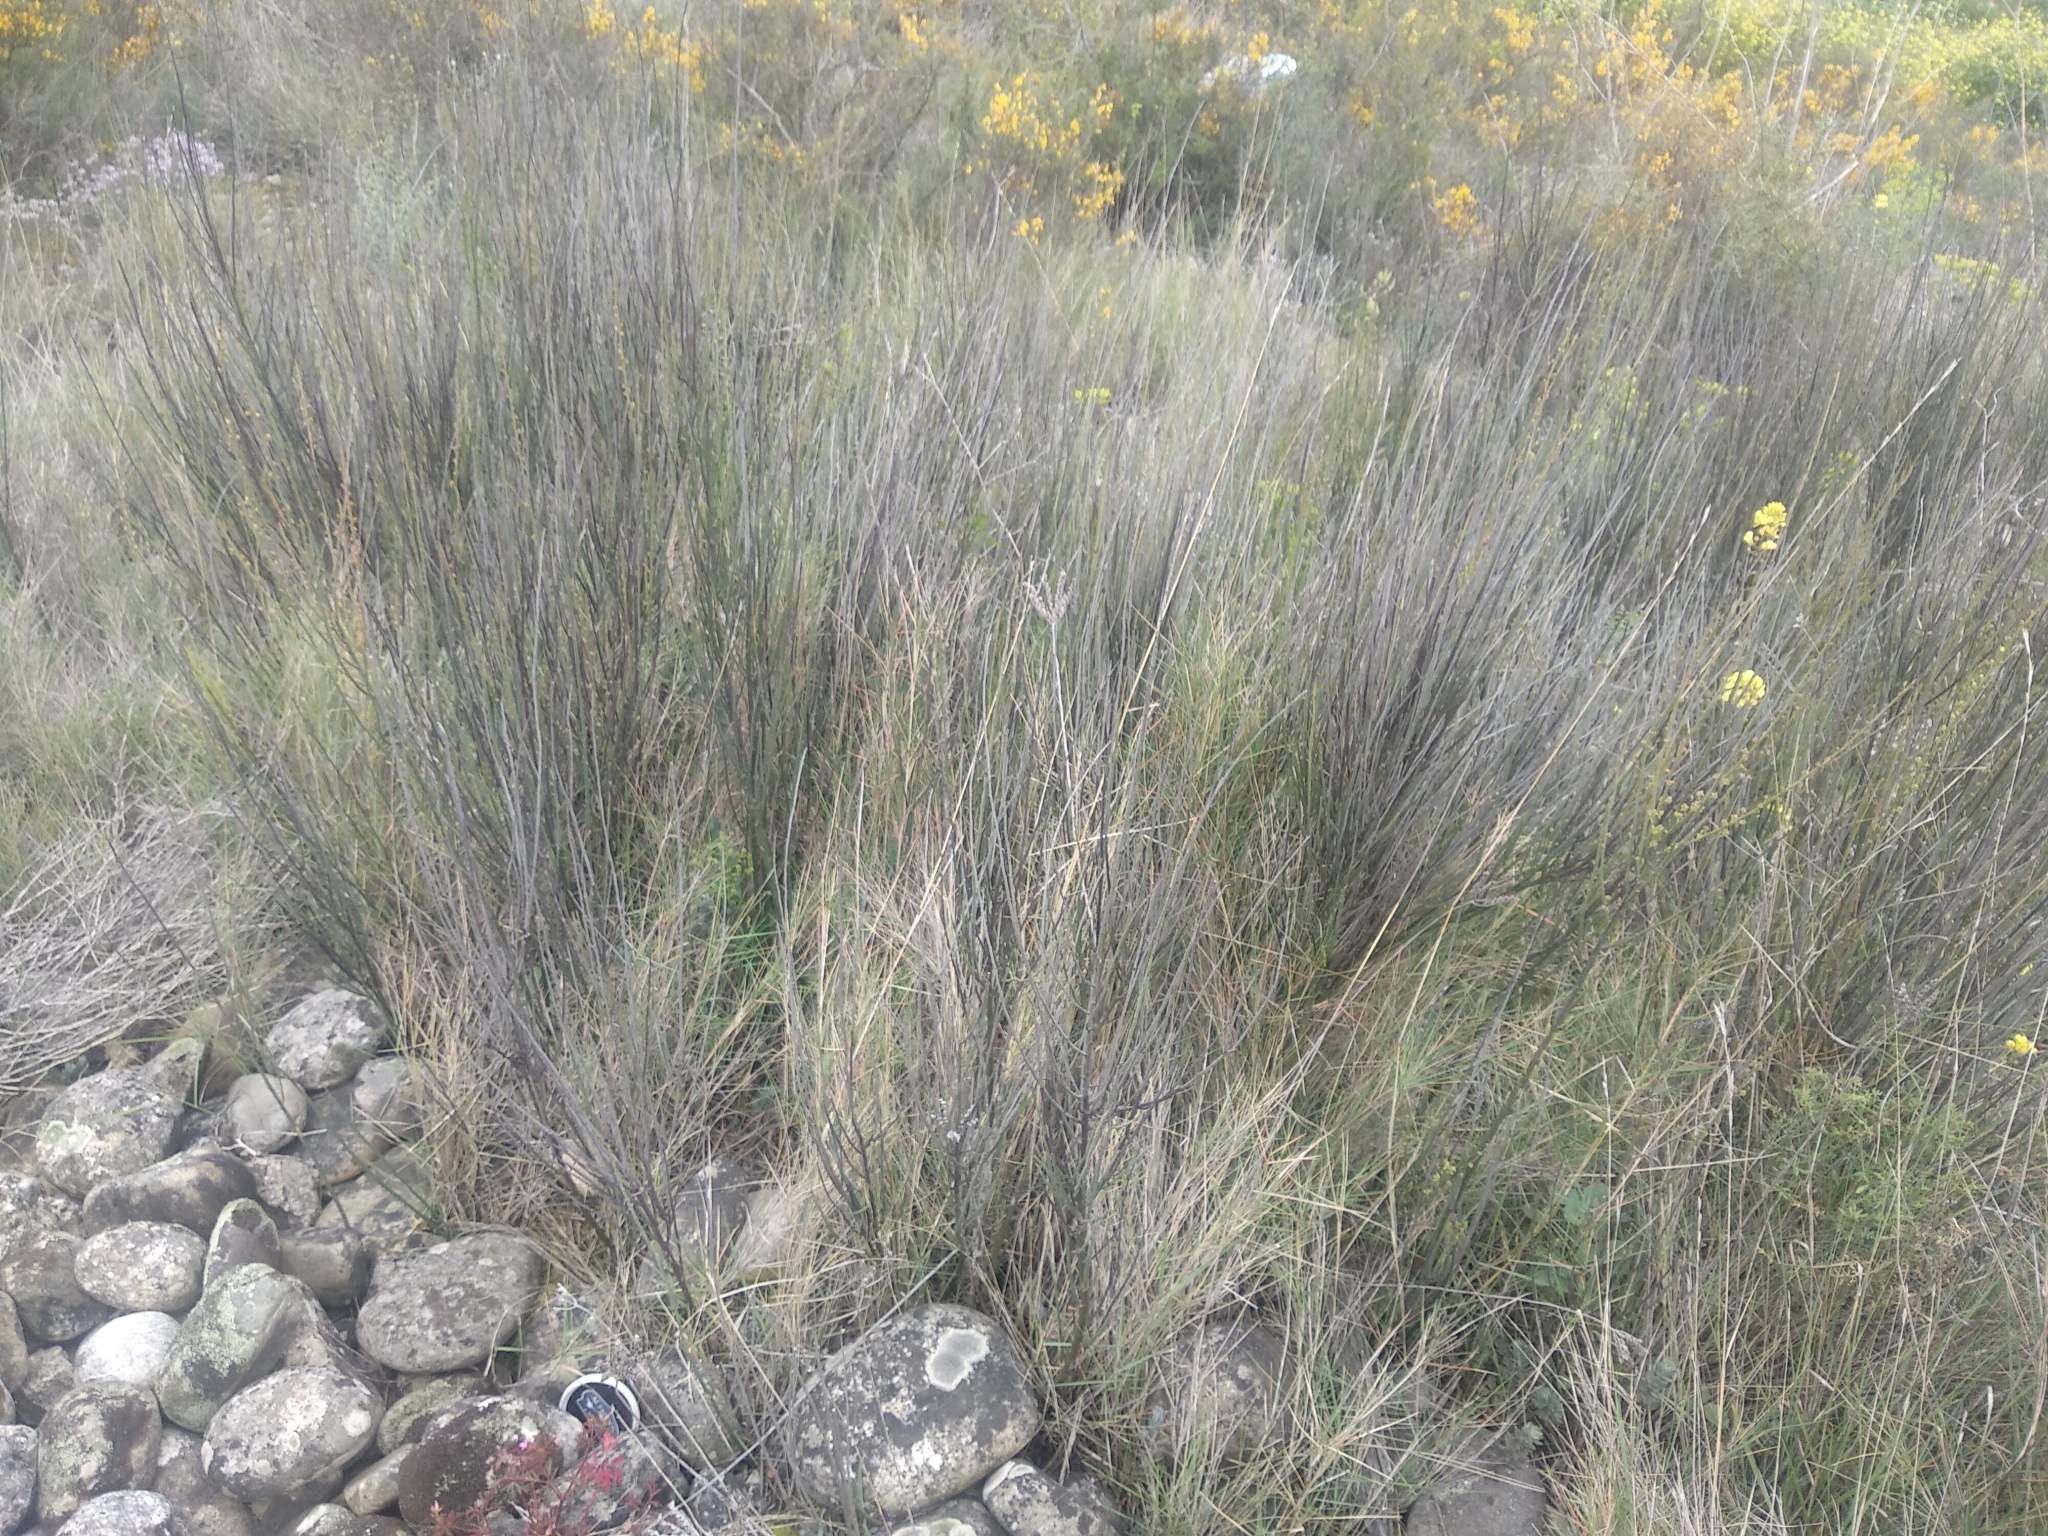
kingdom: Plantae
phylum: Tracheophyta
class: Magnoliopsida
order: Santalales
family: Santalaceae
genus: Osyris
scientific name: Osyris alba
